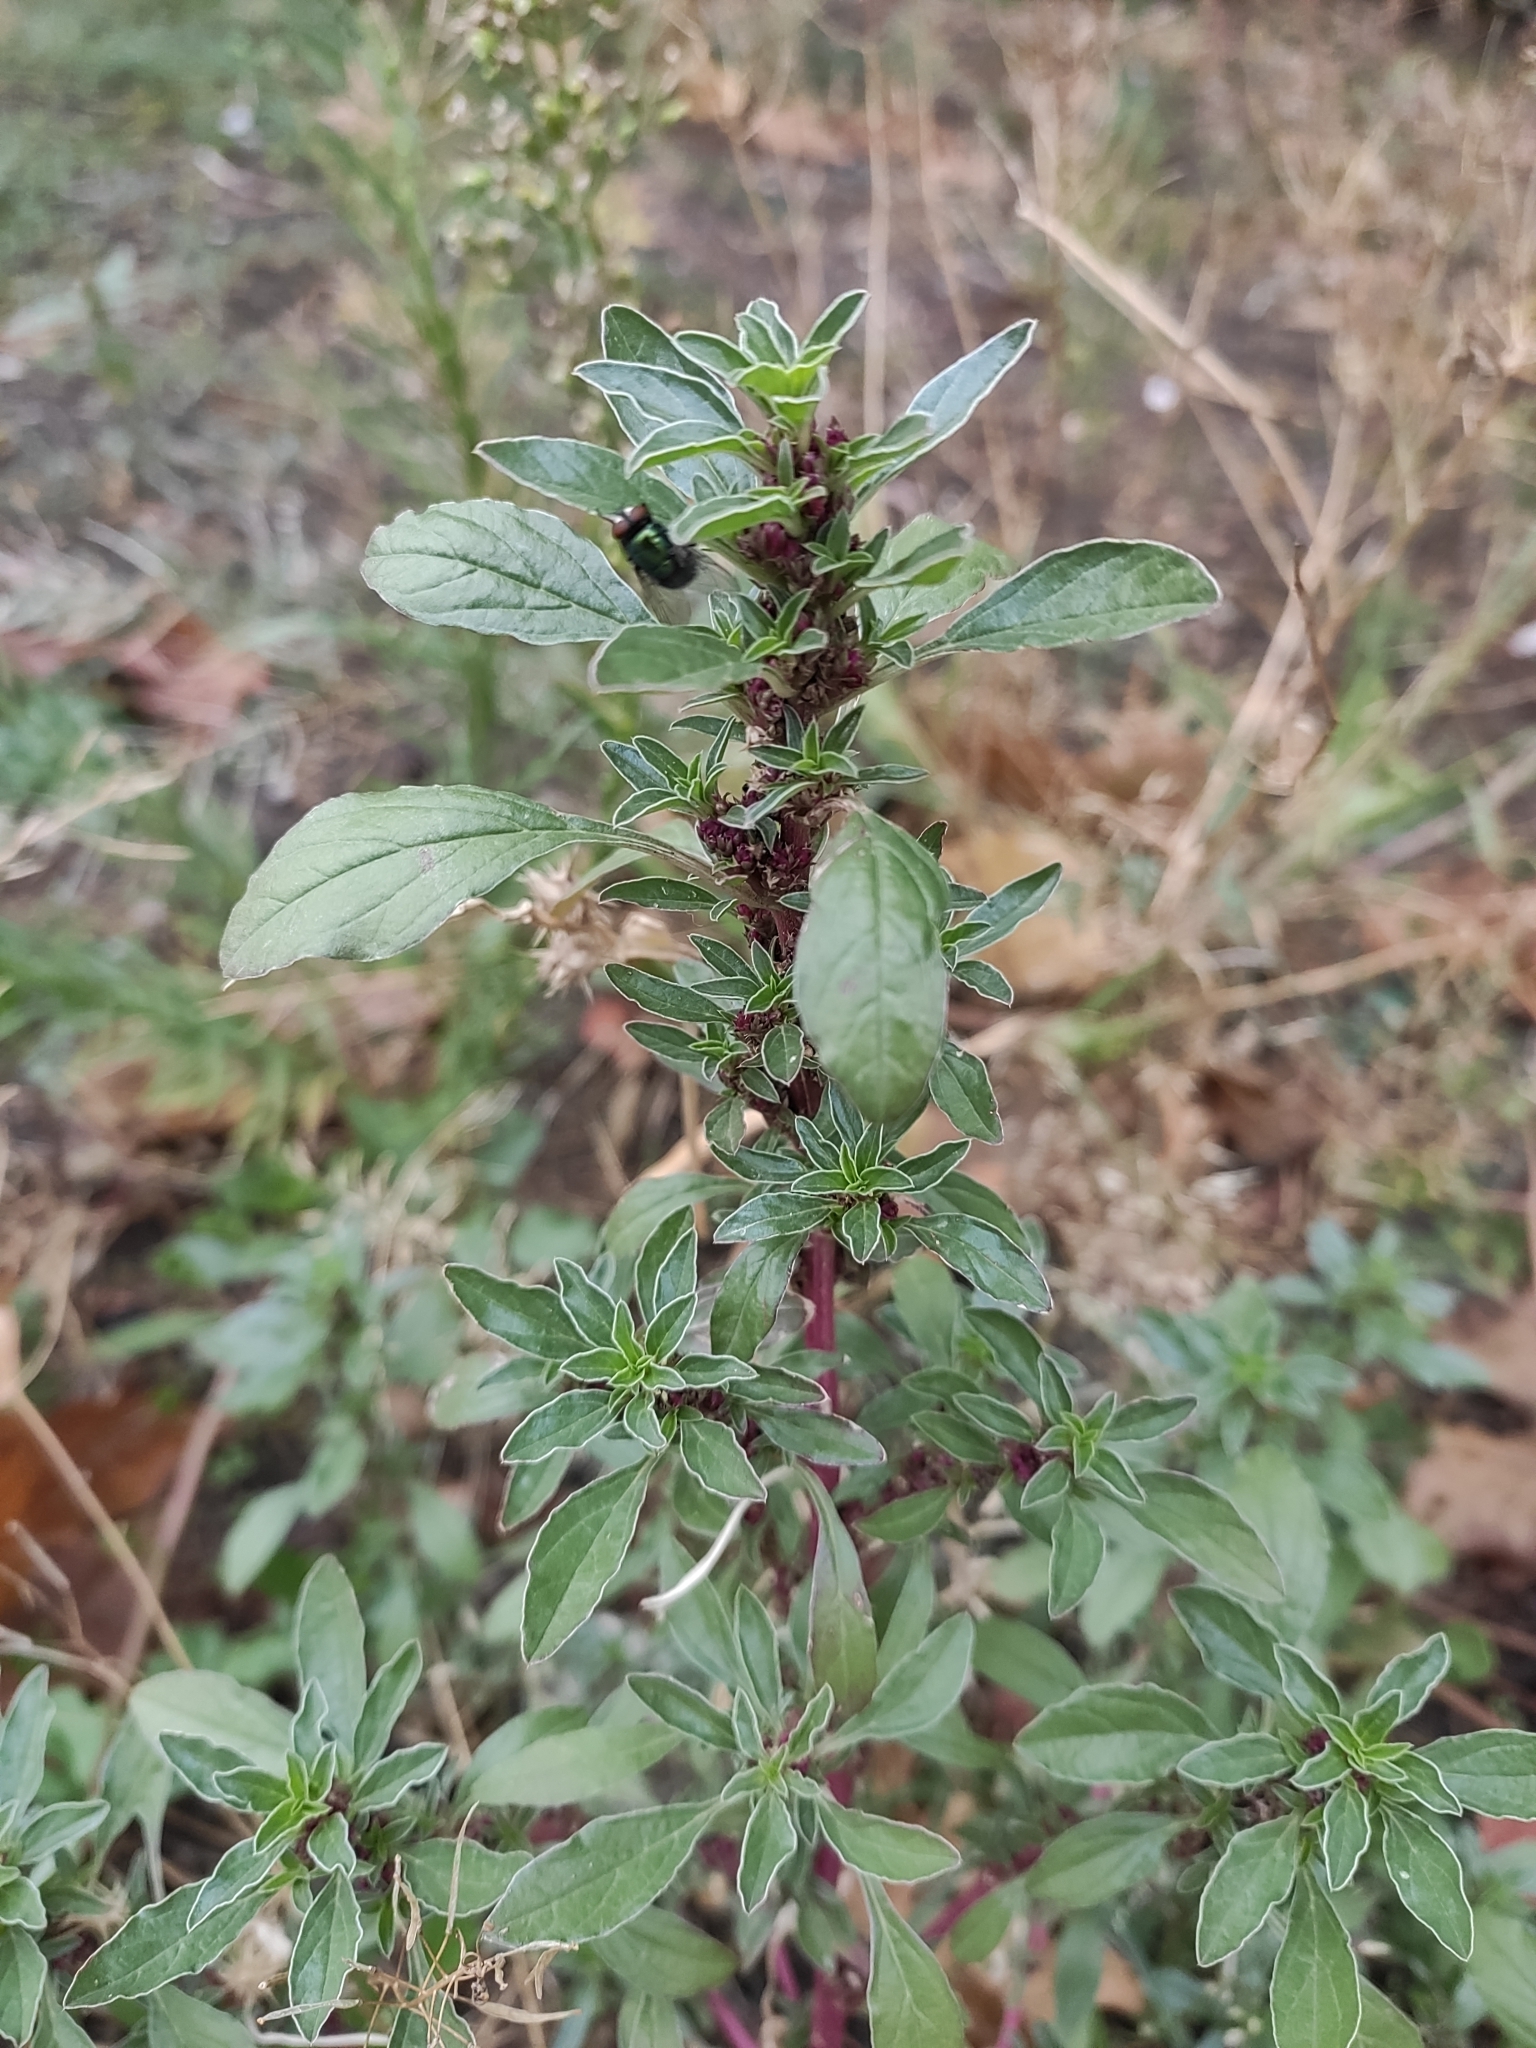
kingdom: Plantae
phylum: Tracheophyta
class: Magnoliopsida
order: Caryophyllales
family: Amaranthaceae
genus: Amaranthus
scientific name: Amaranthus blitoides
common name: Prostrate pigweed
